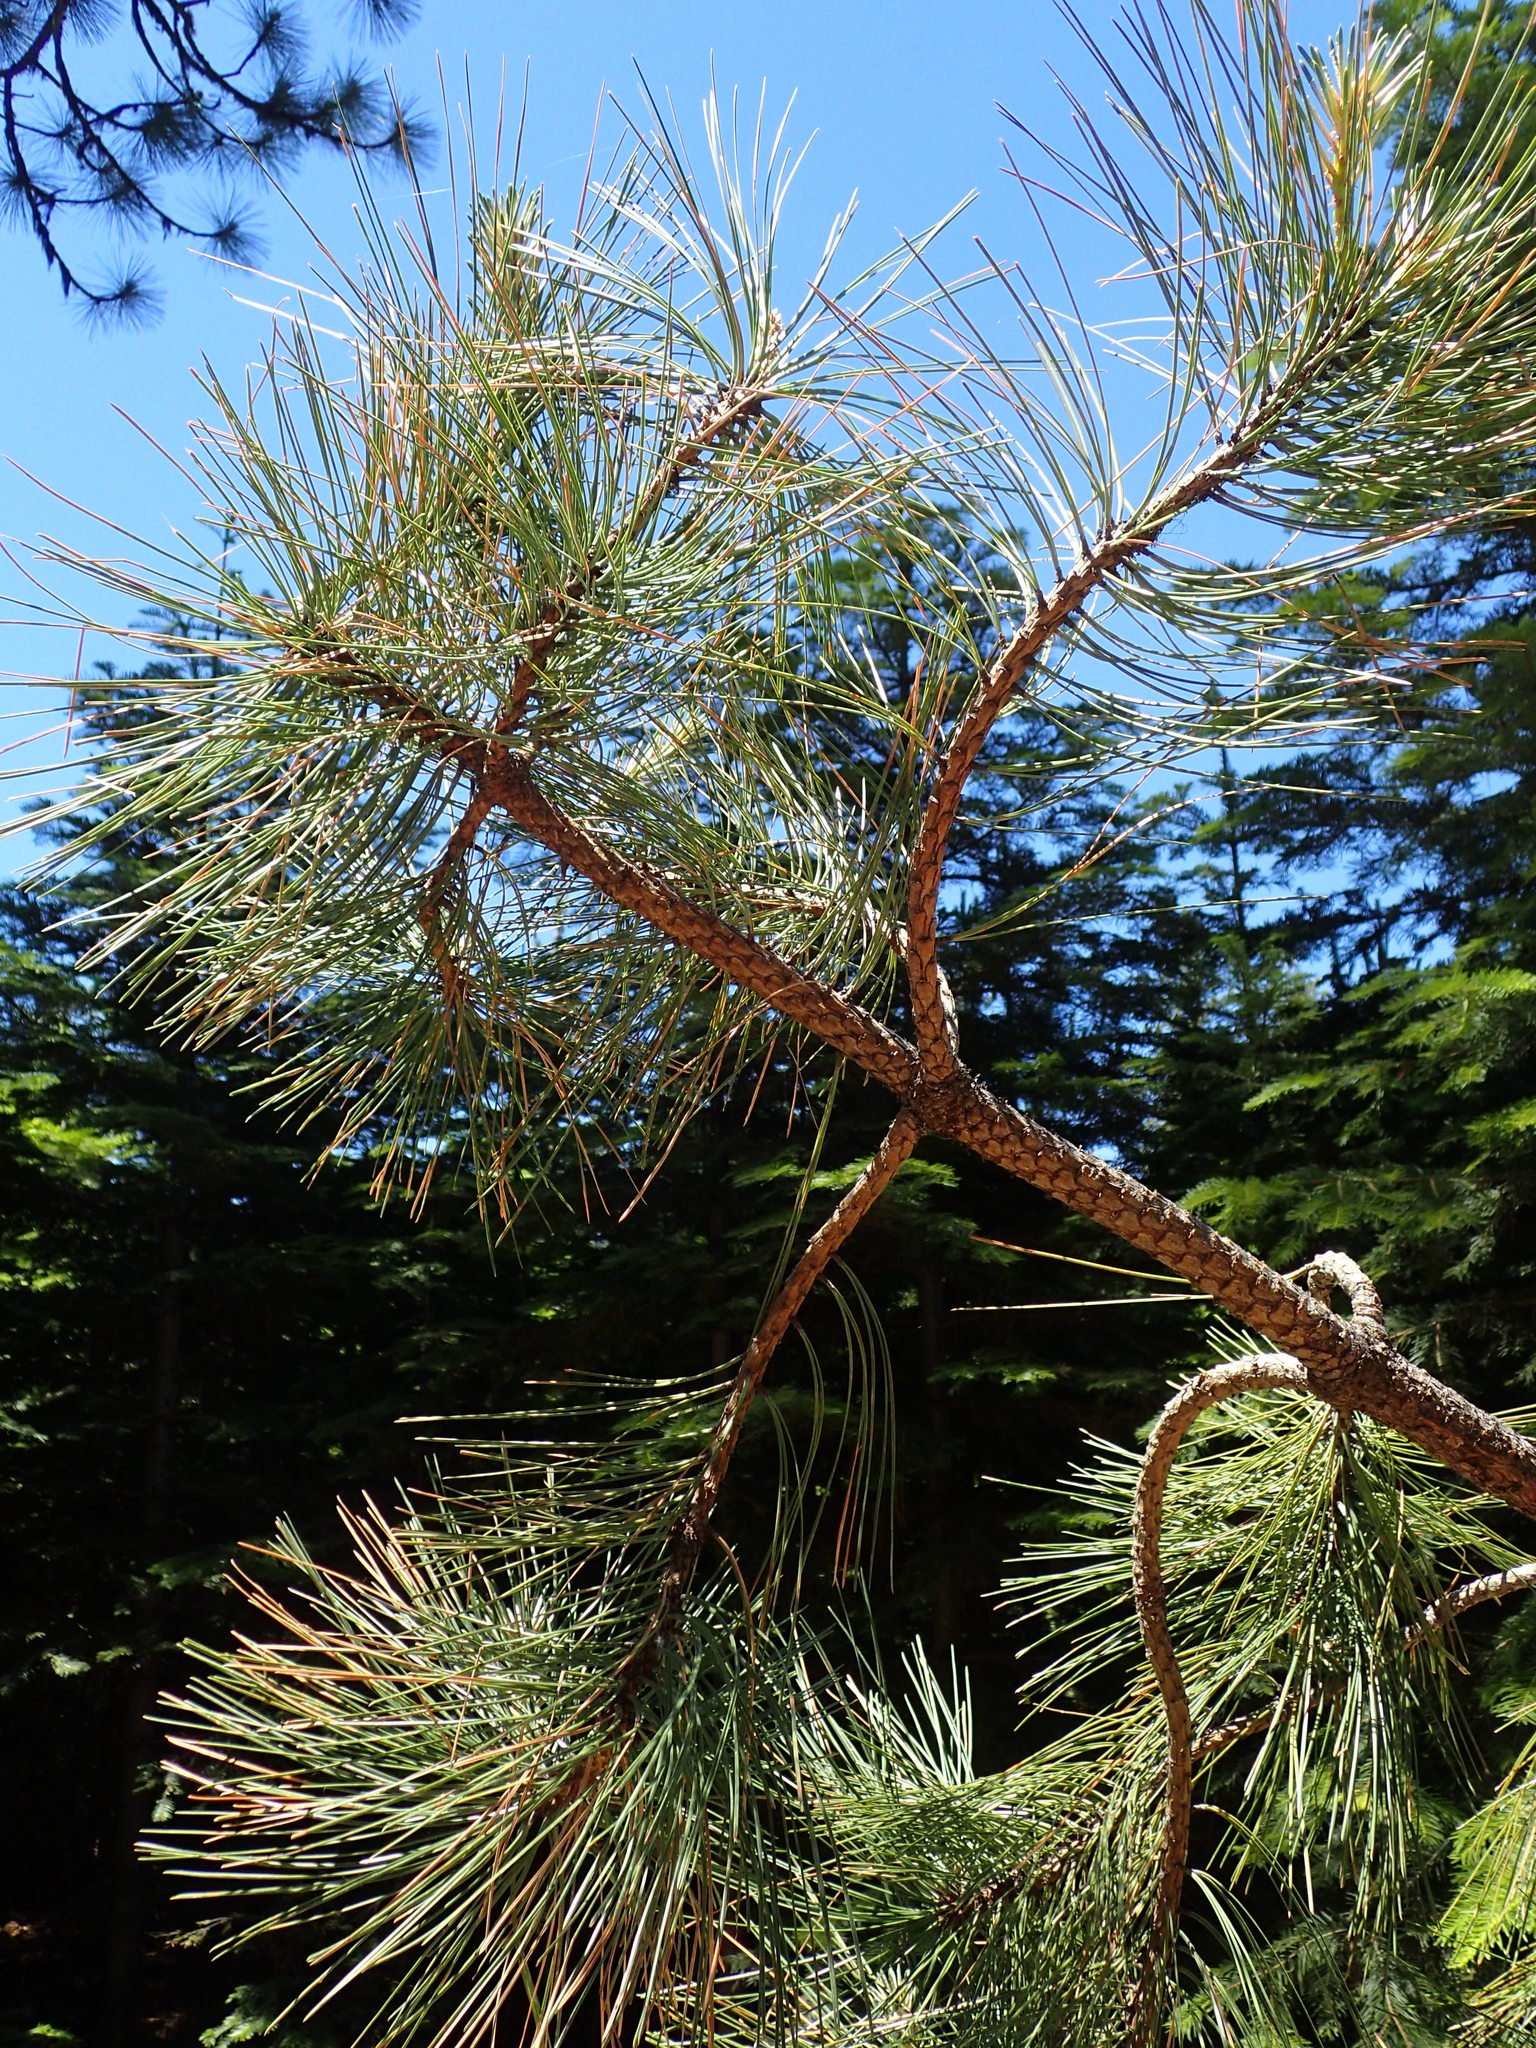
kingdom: Plantae
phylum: Tracheophyta
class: Pinopsida
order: Pinales
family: Pinaceae
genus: Pinus
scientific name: Pinus ponderosa
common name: Western yellow-pine
